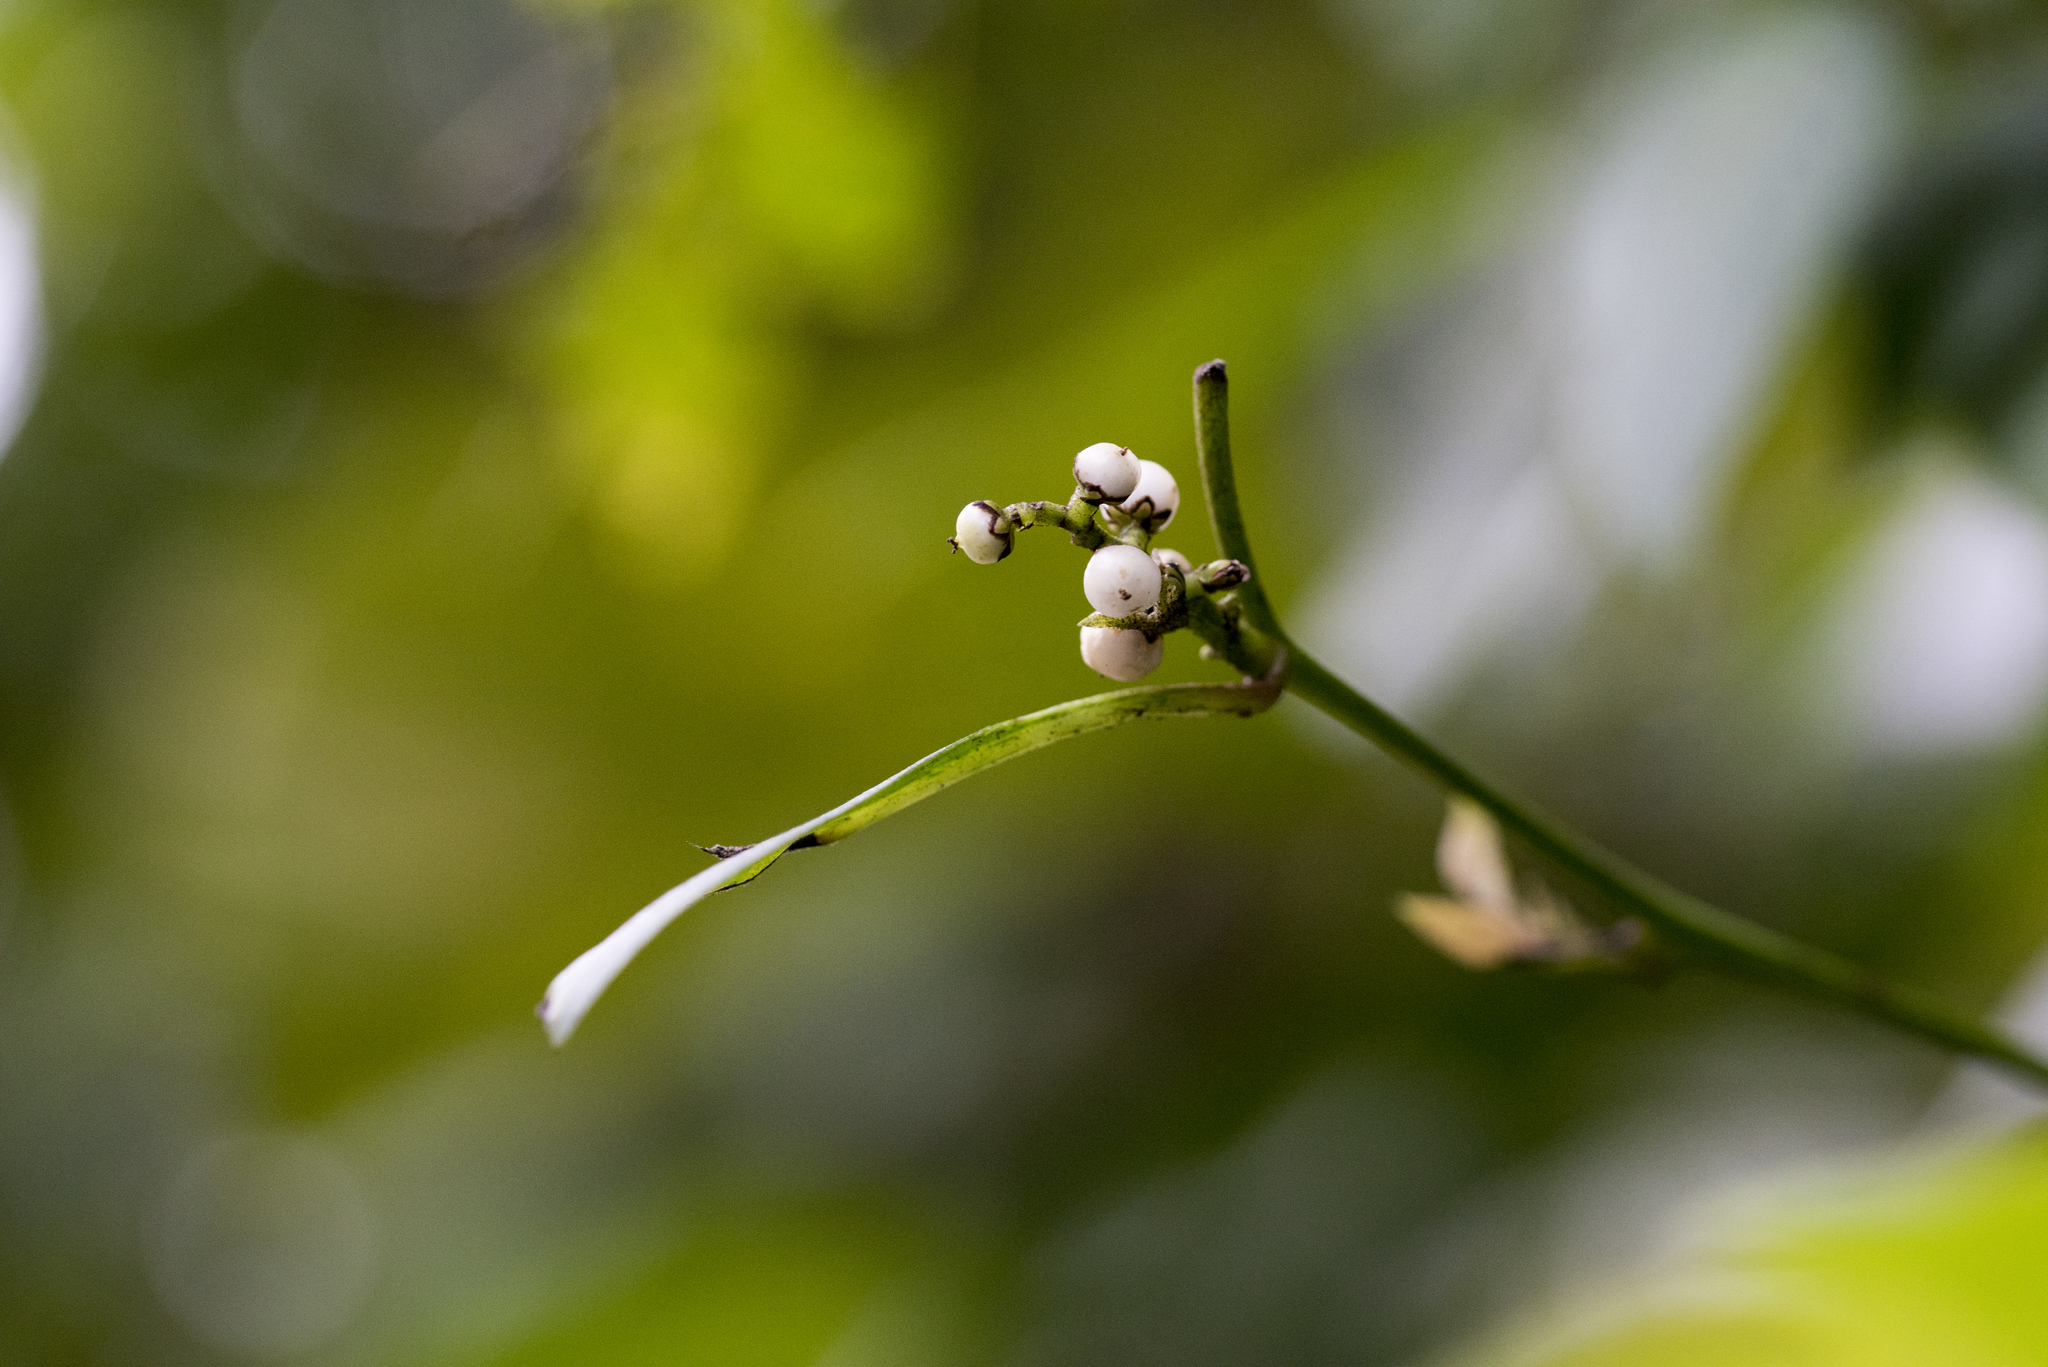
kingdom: Plantae
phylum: Tracheophyta
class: Magnoliopsida
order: Caryophyllales
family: Amaranthaceae
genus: Deeringia
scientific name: Deeringia polysperma
